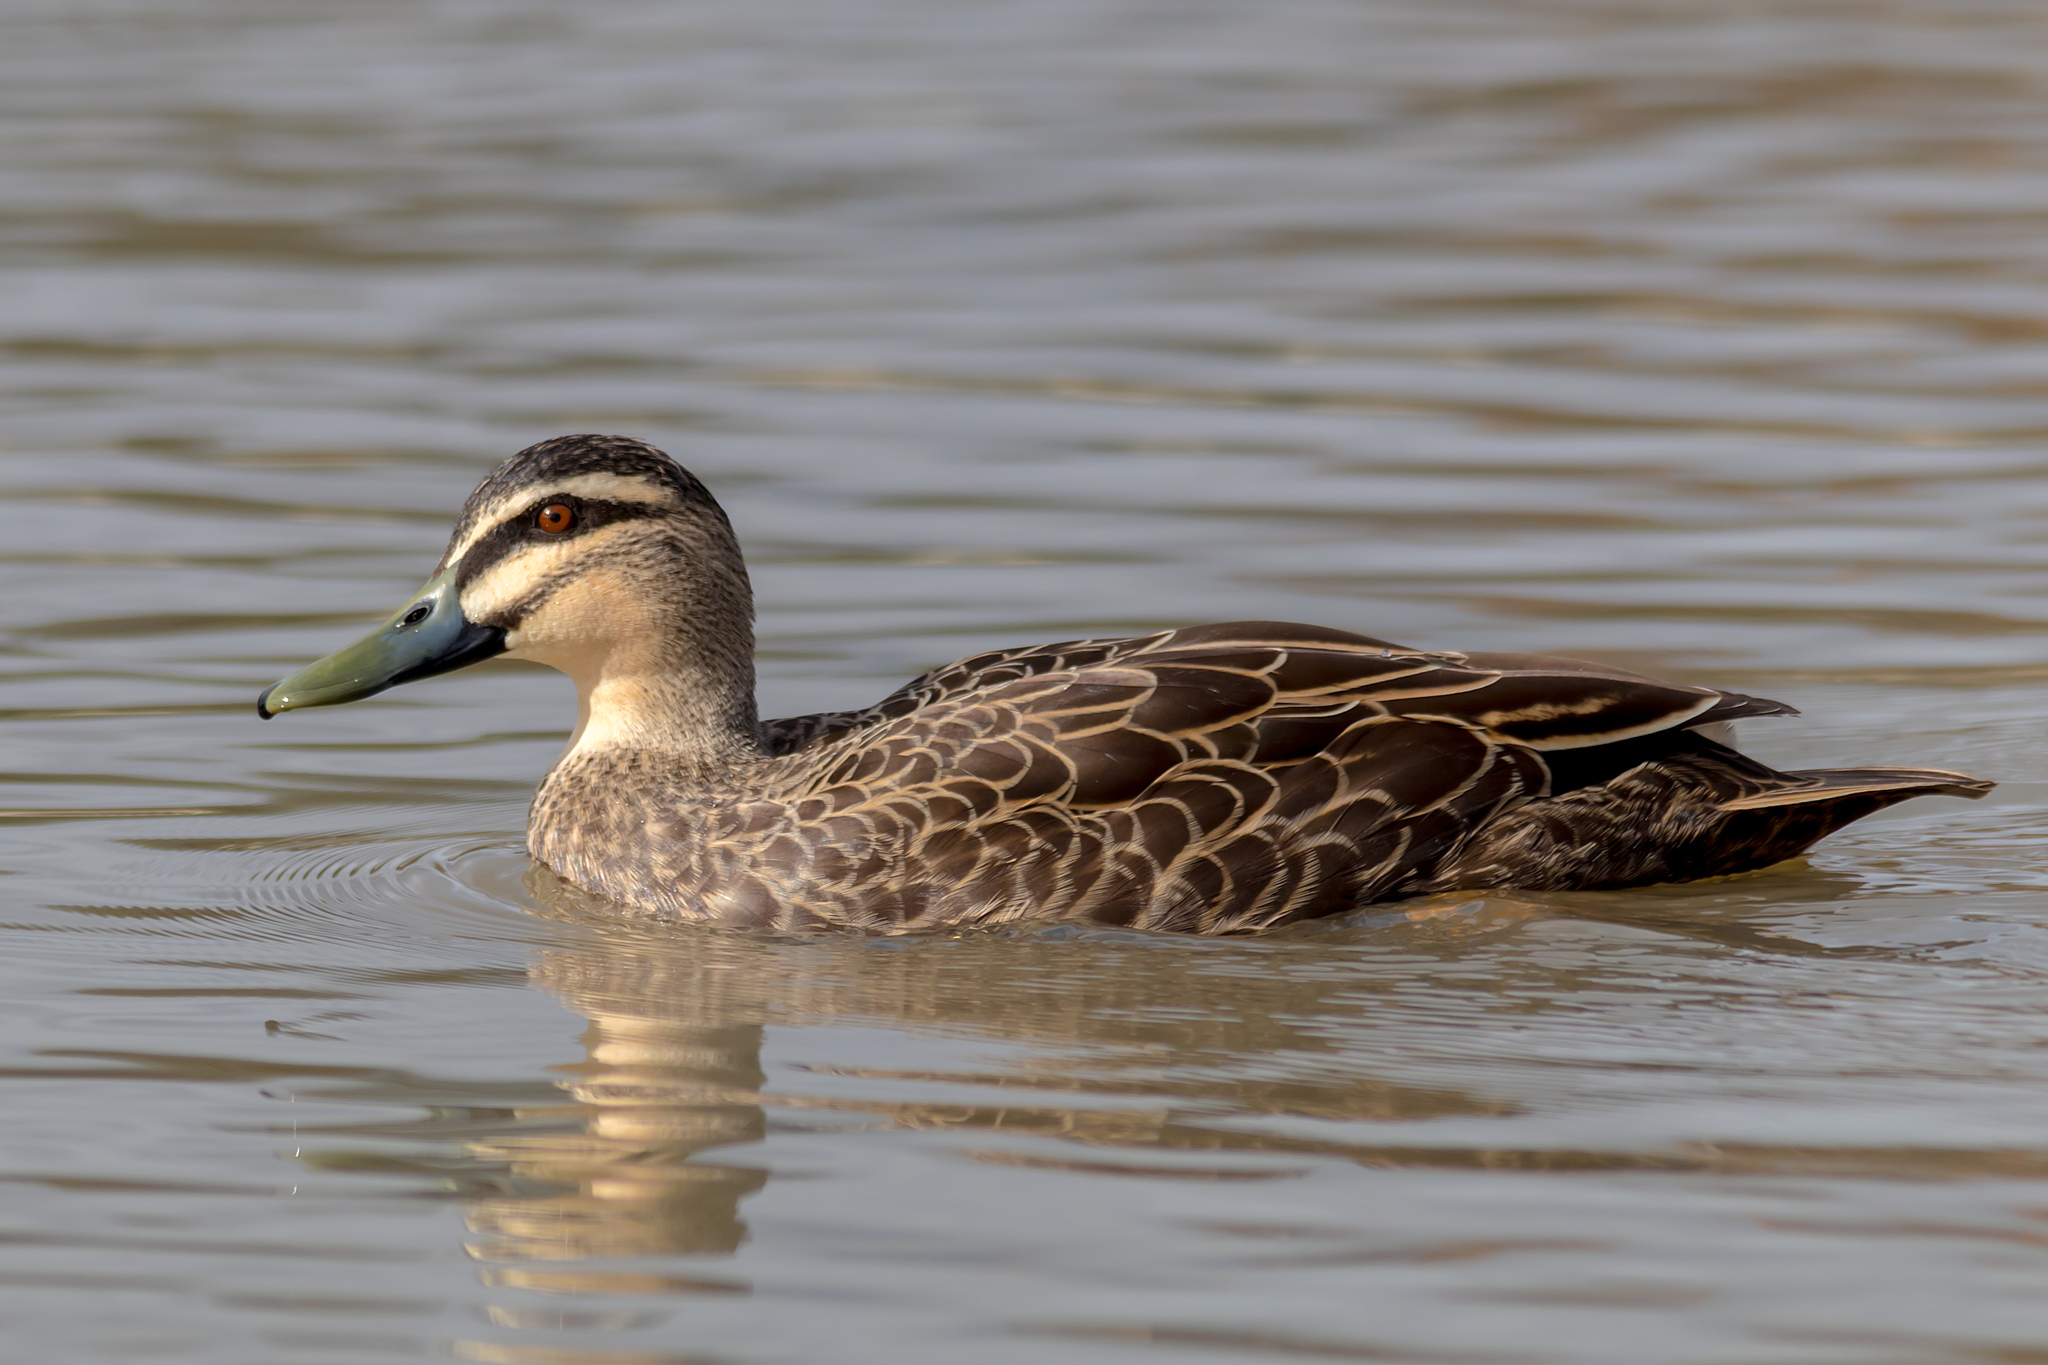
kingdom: Animalia
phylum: Chordata
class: Aves
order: Anseriformes
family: Anatidae
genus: Anas
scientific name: Anas superciliosa
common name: Pacific black duck
